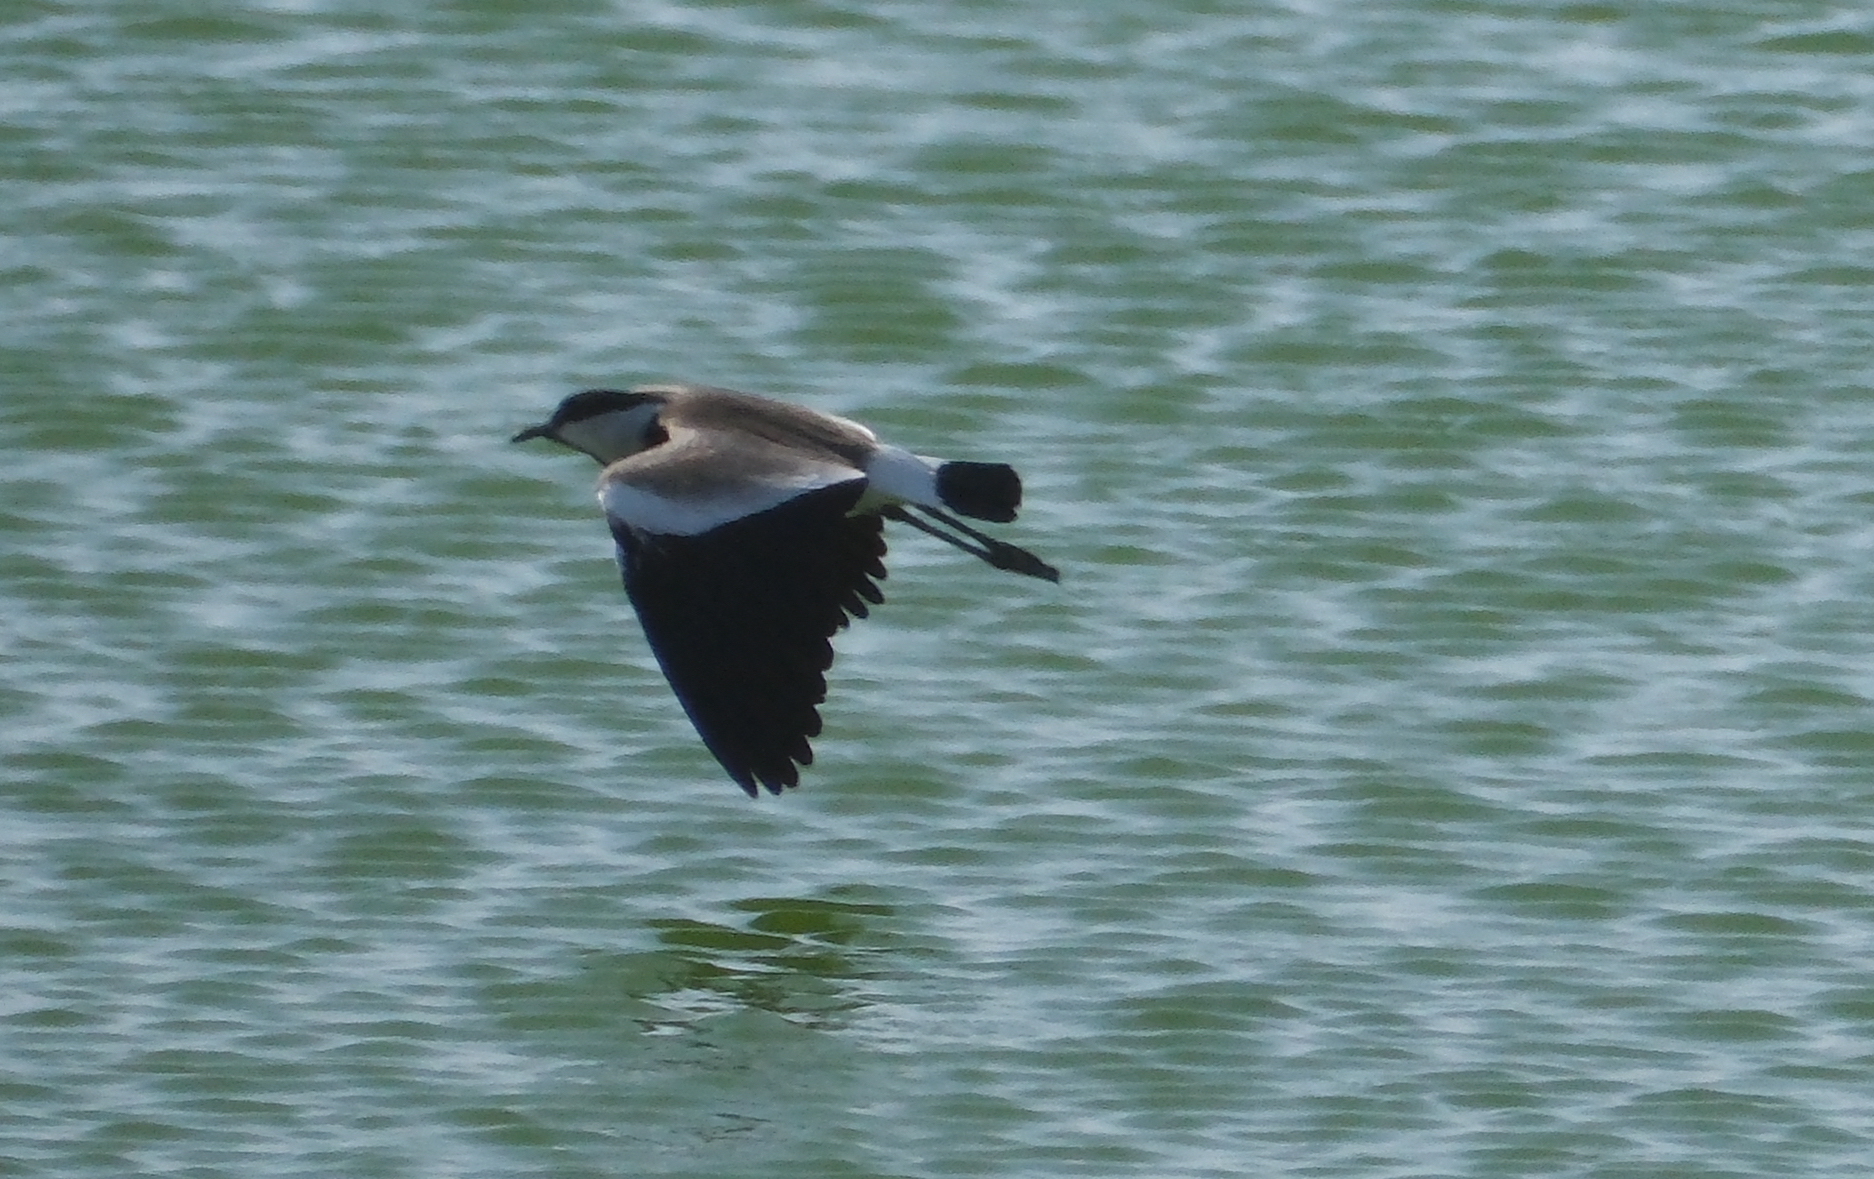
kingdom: Animalia
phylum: Chordata
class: Aves
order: Charadriiformes
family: Charadriidae
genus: Vanellus
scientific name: Vanellus spinosus
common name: Spur-winged lapwing
